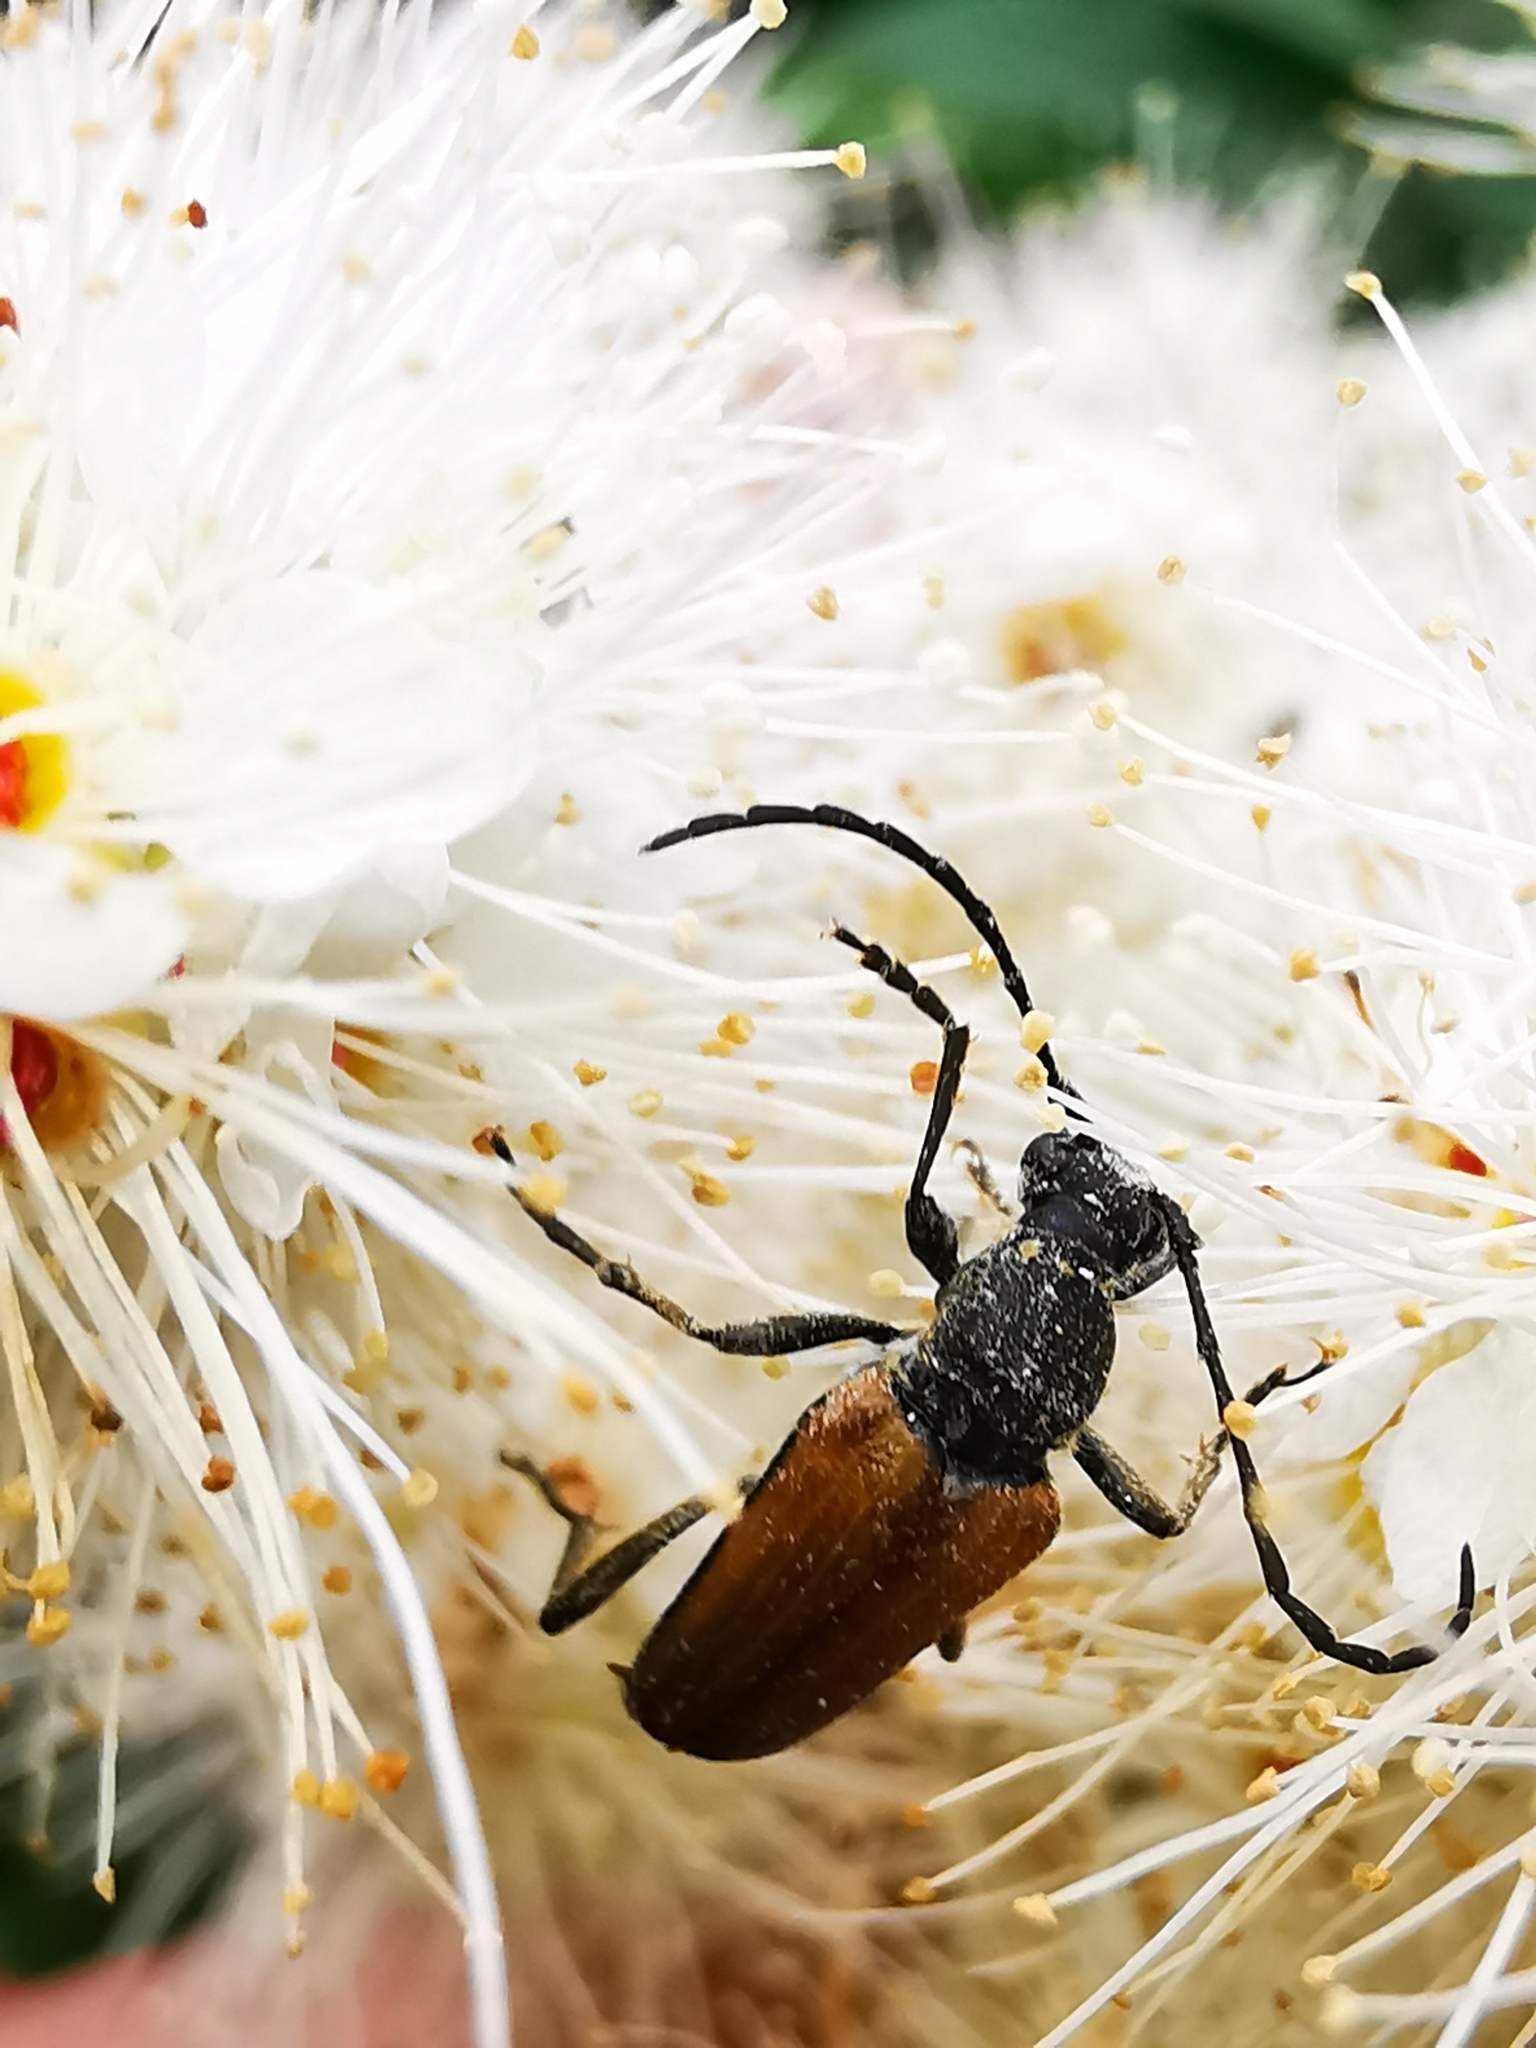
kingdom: Animalia
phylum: Arthropoda
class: Insecta
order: Coleoptera
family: Cerambycidae
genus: Anastrangalia
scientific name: Anastrangalia sanguinolenta
